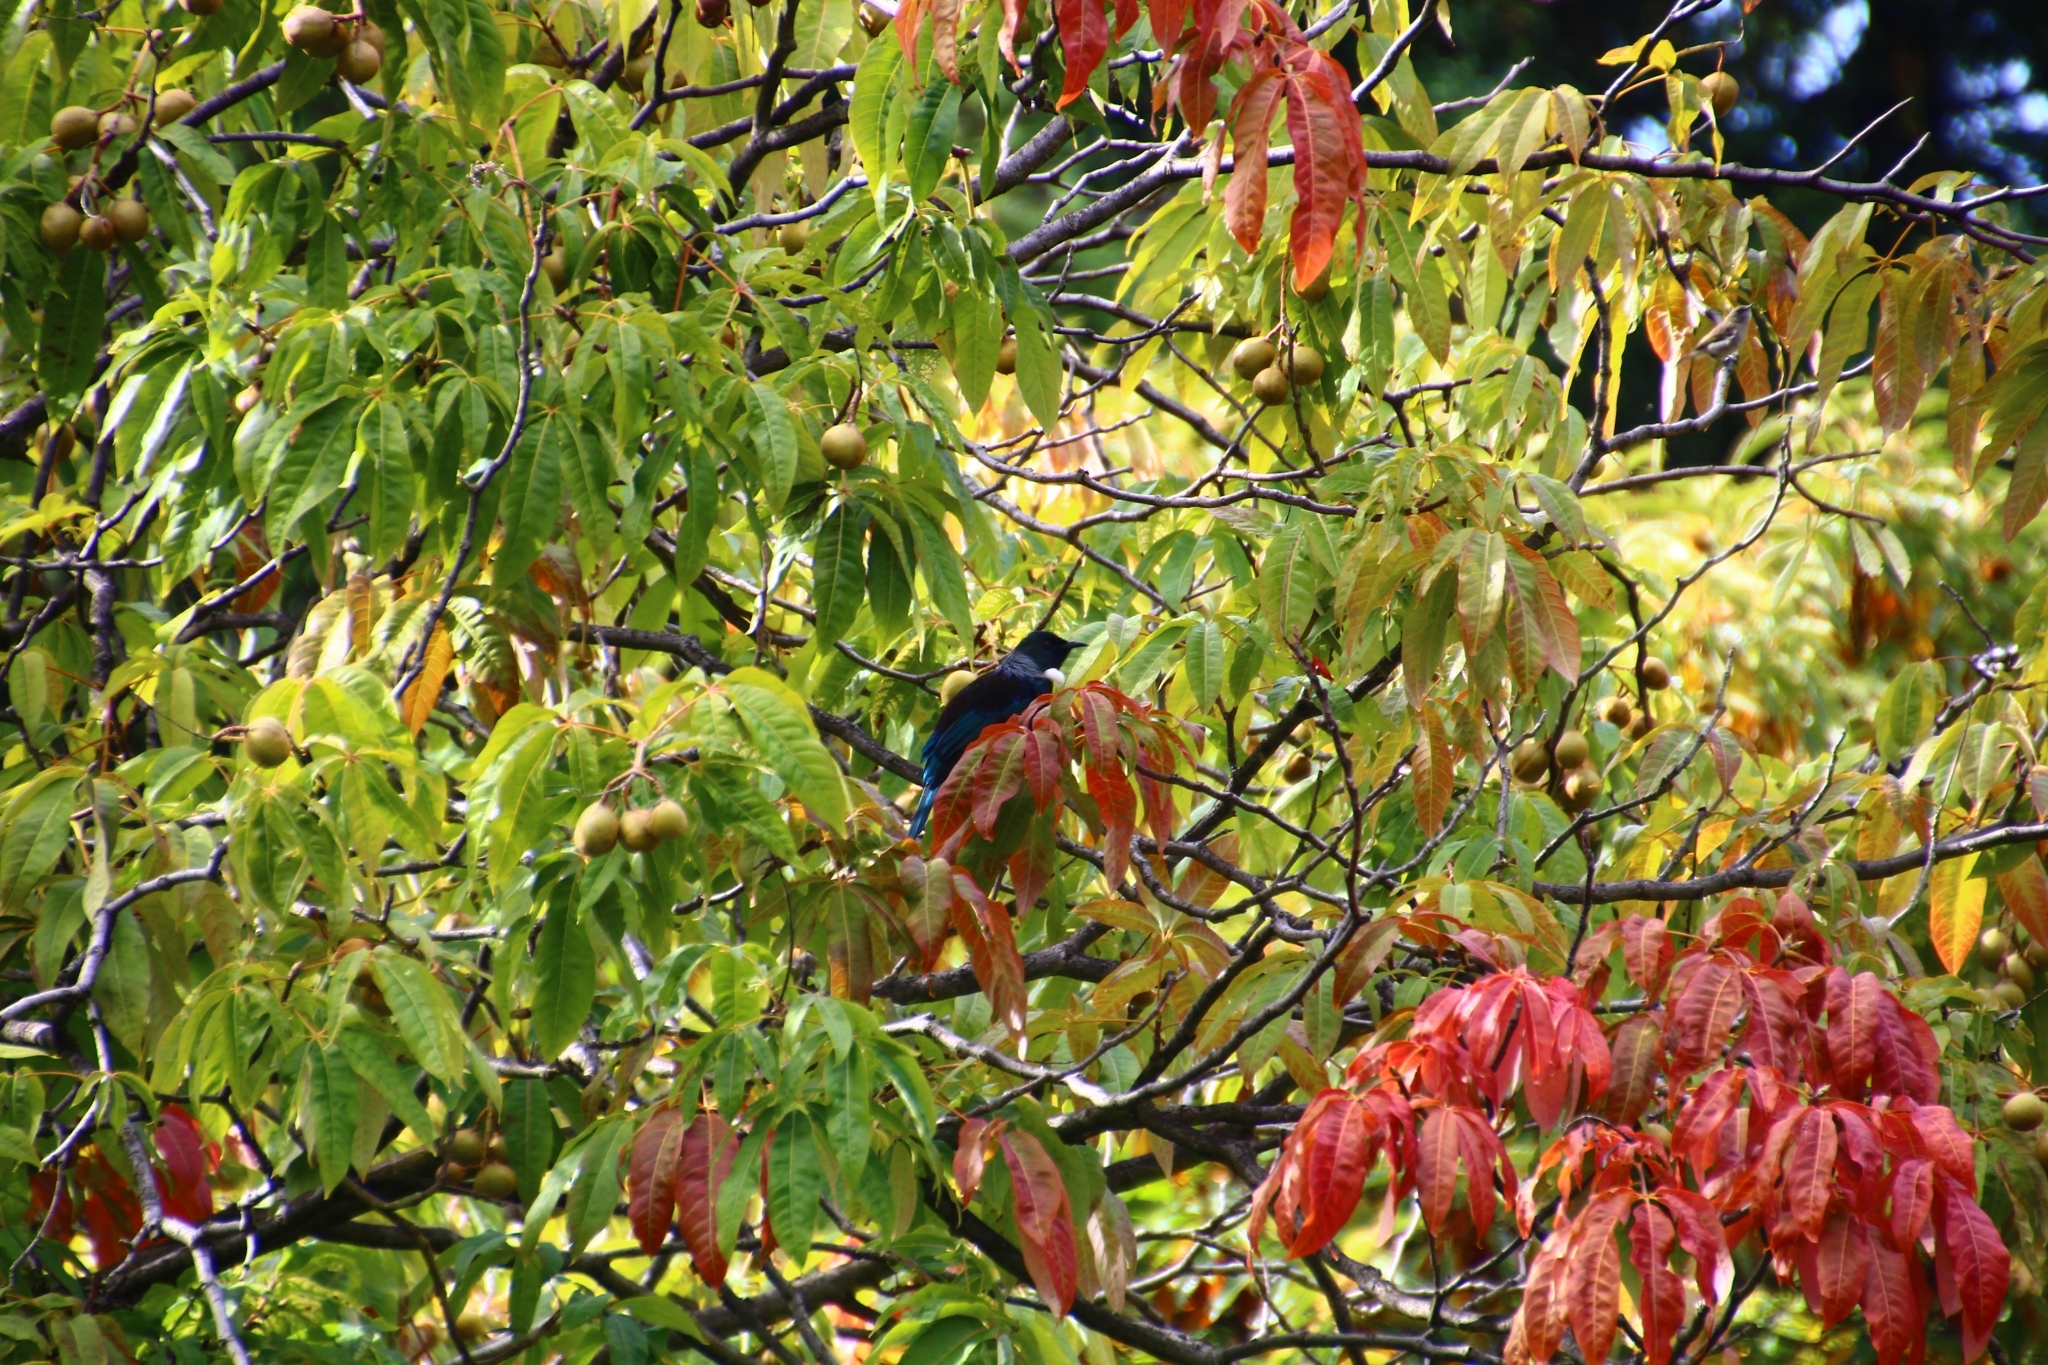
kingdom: Animalia
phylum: Chordata
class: Aves
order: Passeriformes
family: Meliphagidae
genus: Prosthemadera
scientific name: Prosthemadera novaeseelandiae
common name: Tui
